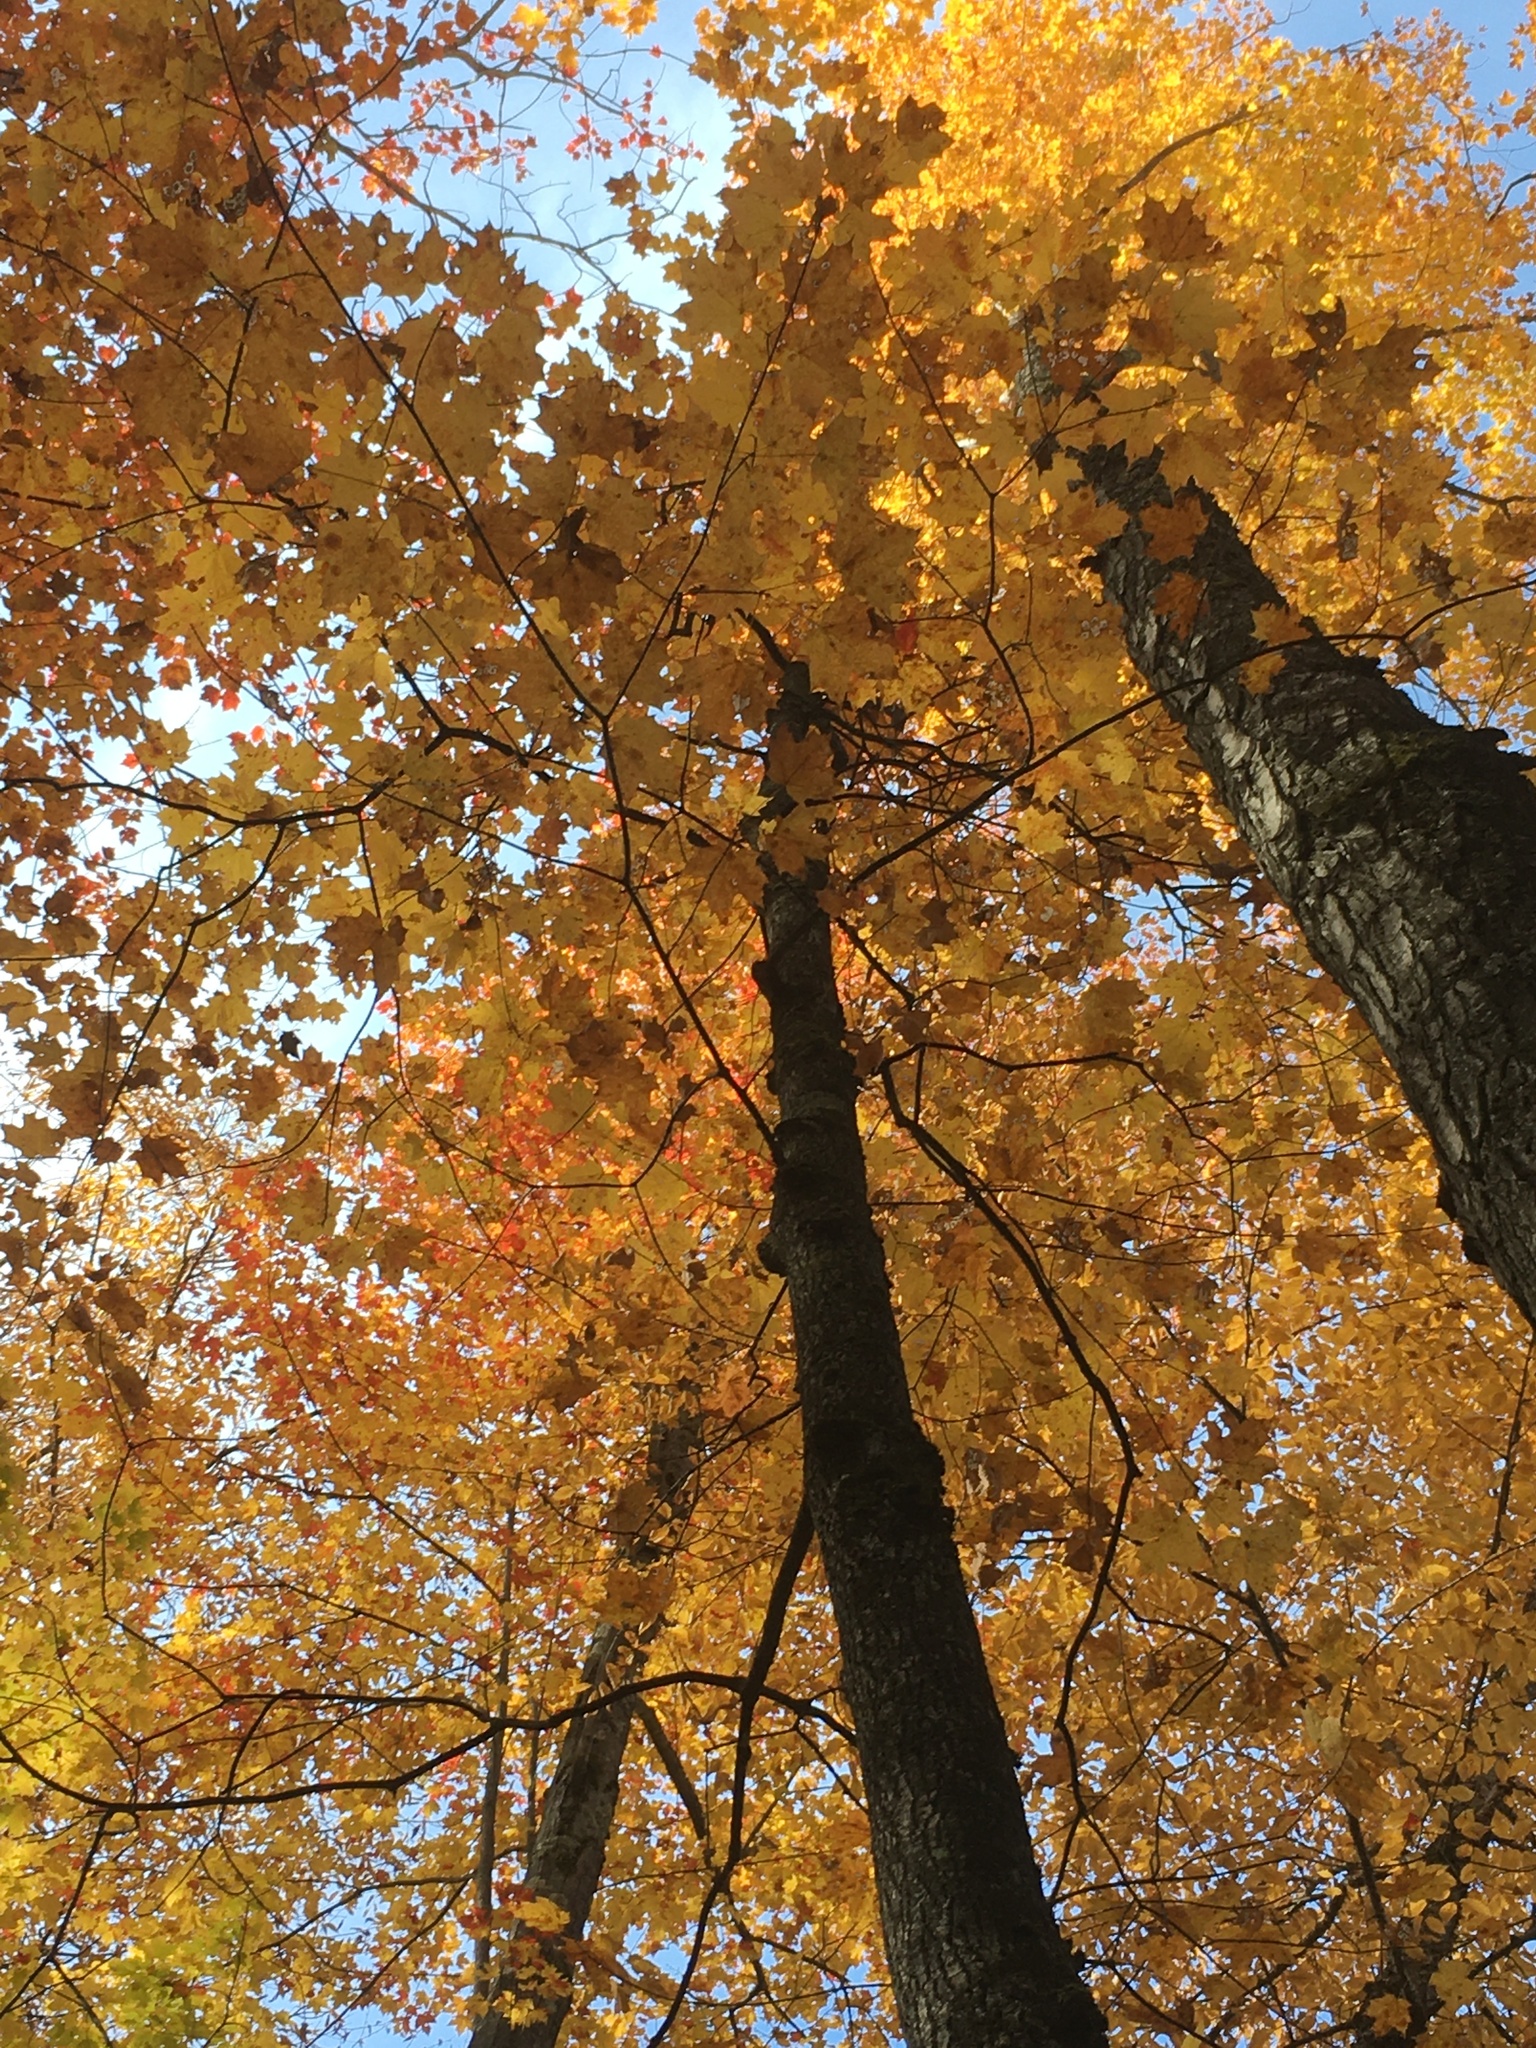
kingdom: Plantae
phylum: Tracheophyta
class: Magnoliopsida
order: Sapindales
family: Sapindaceae
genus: Acer
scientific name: Acer saccharum
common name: Sugar maple
